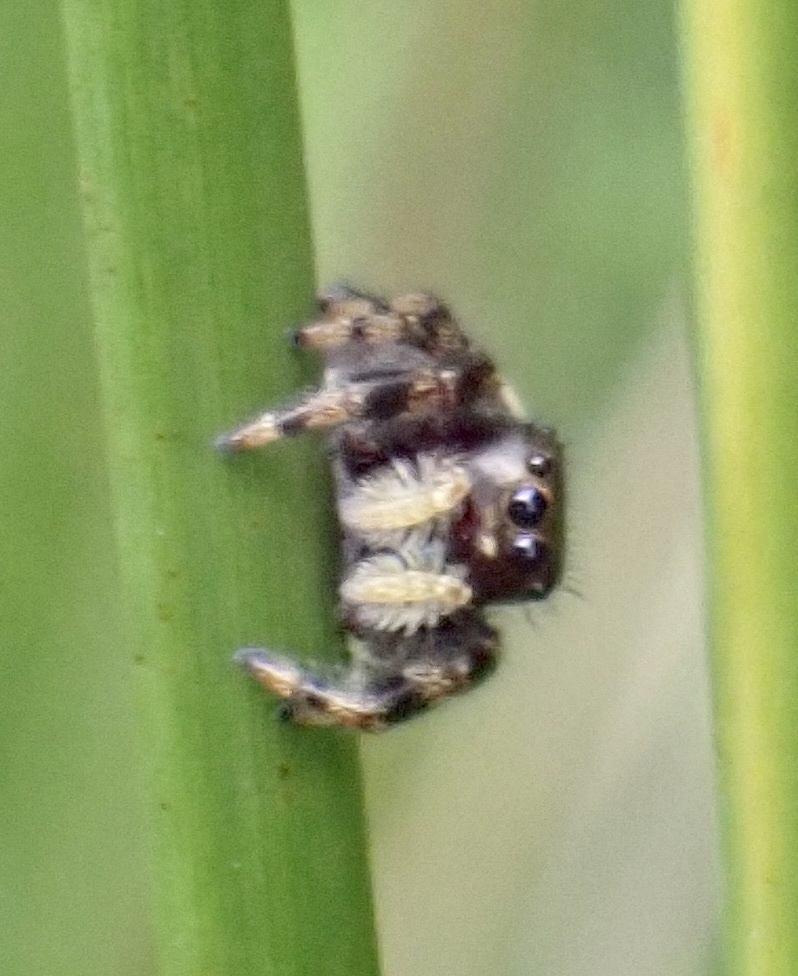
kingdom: Animalia
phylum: Arthropoda
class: Arachnida
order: Araneae
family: Salticidae
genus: Phidippus
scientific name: Phidippus clarus
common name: Brilliant jumping spider
